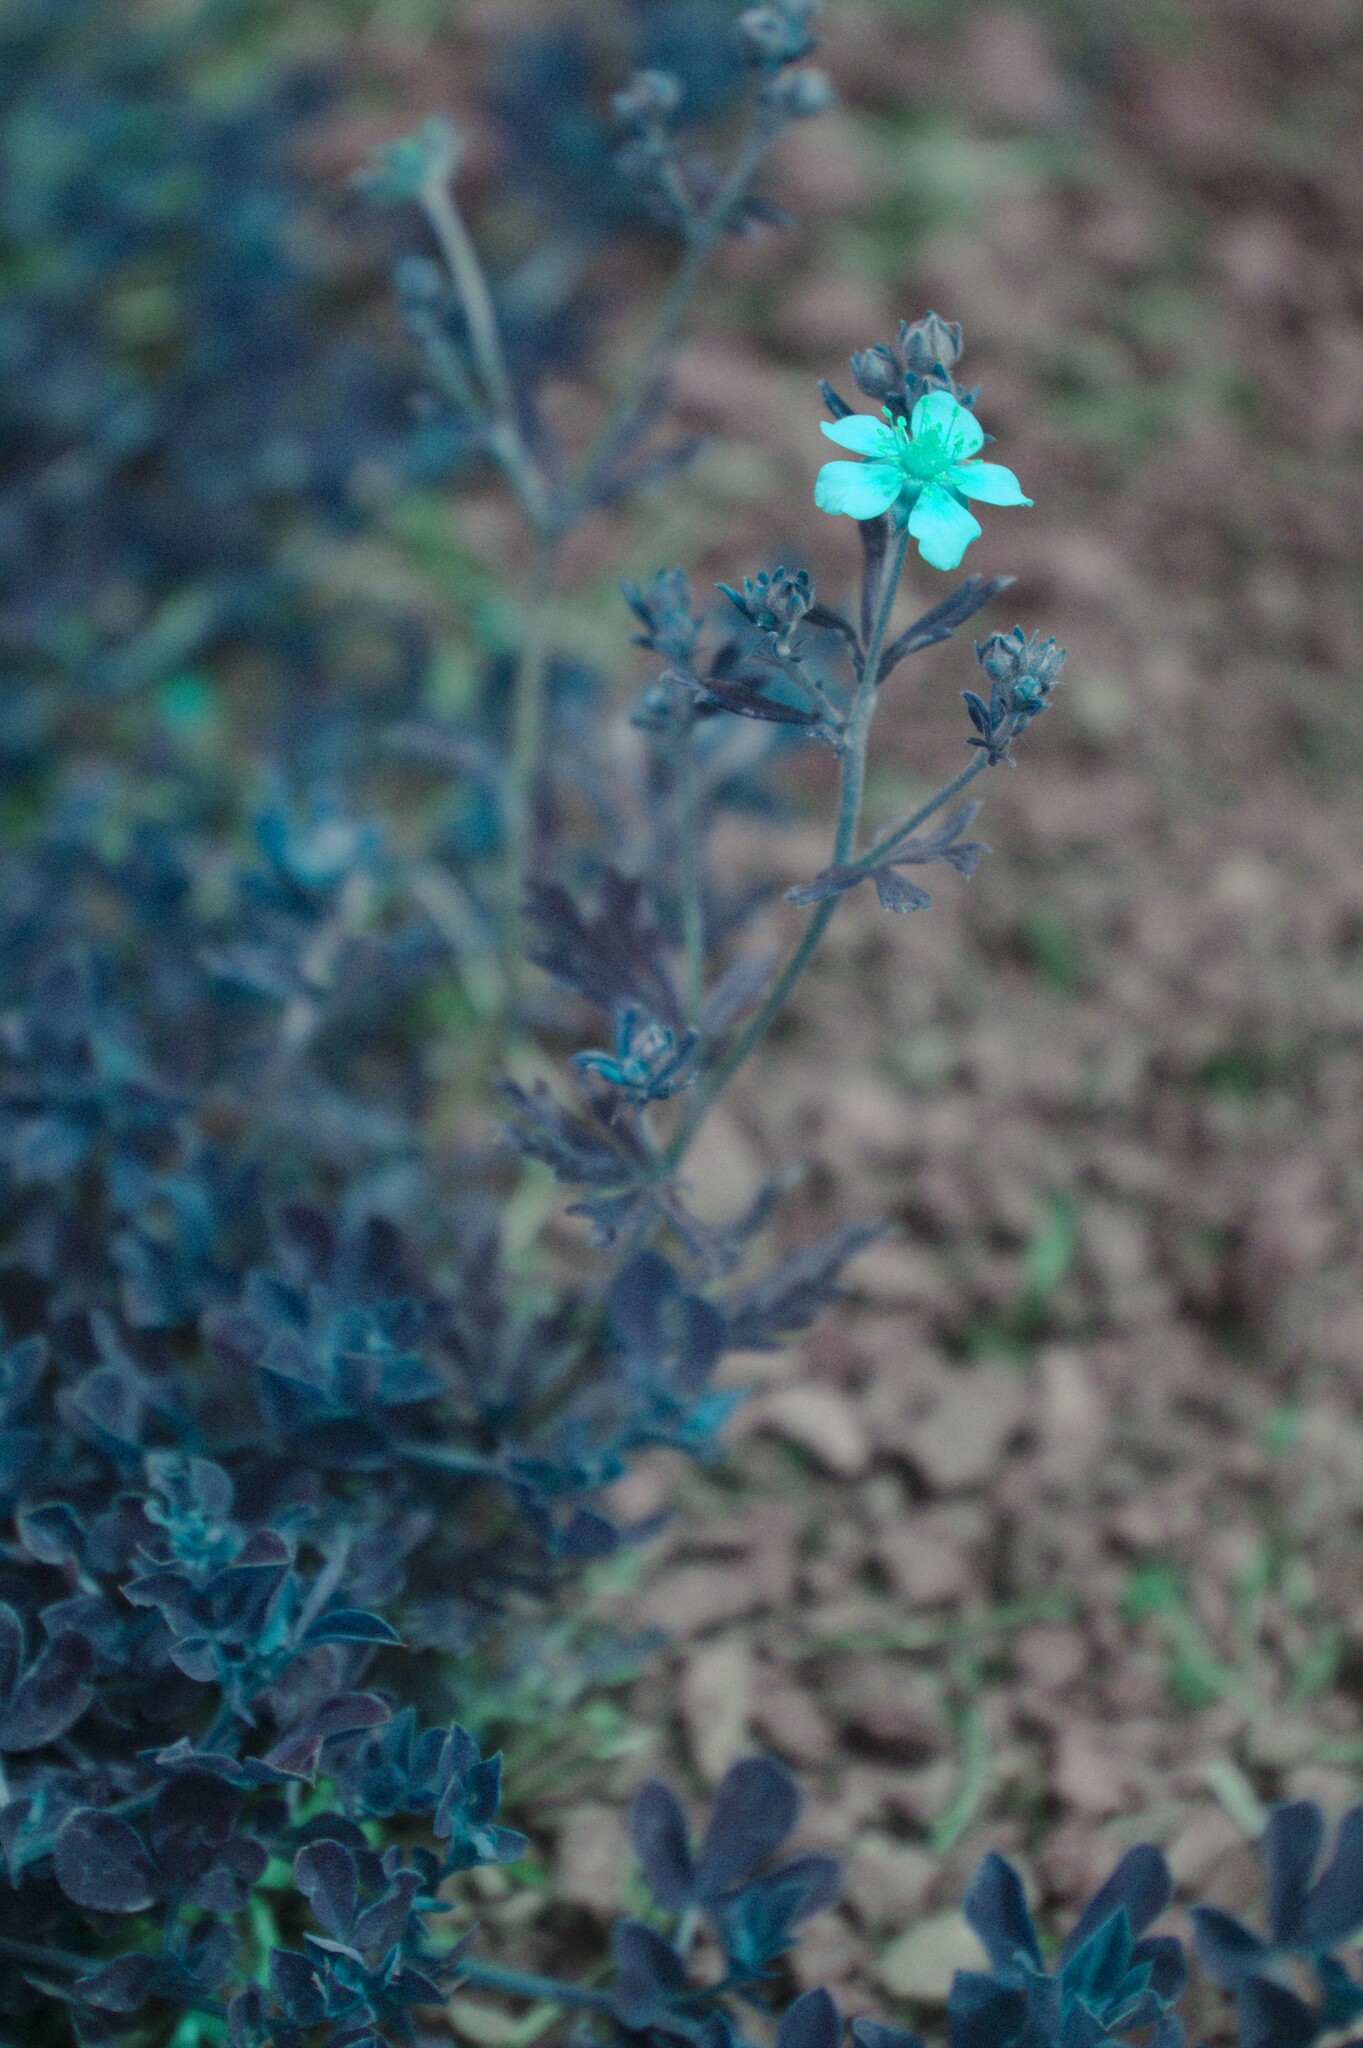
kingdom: Plantae
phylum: Tracheophyta
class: Magnoliopsida
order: Rosales
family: Rosaceae
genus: Potentilla
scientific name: Potentilla argentea
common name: Hoary cinquefoil
